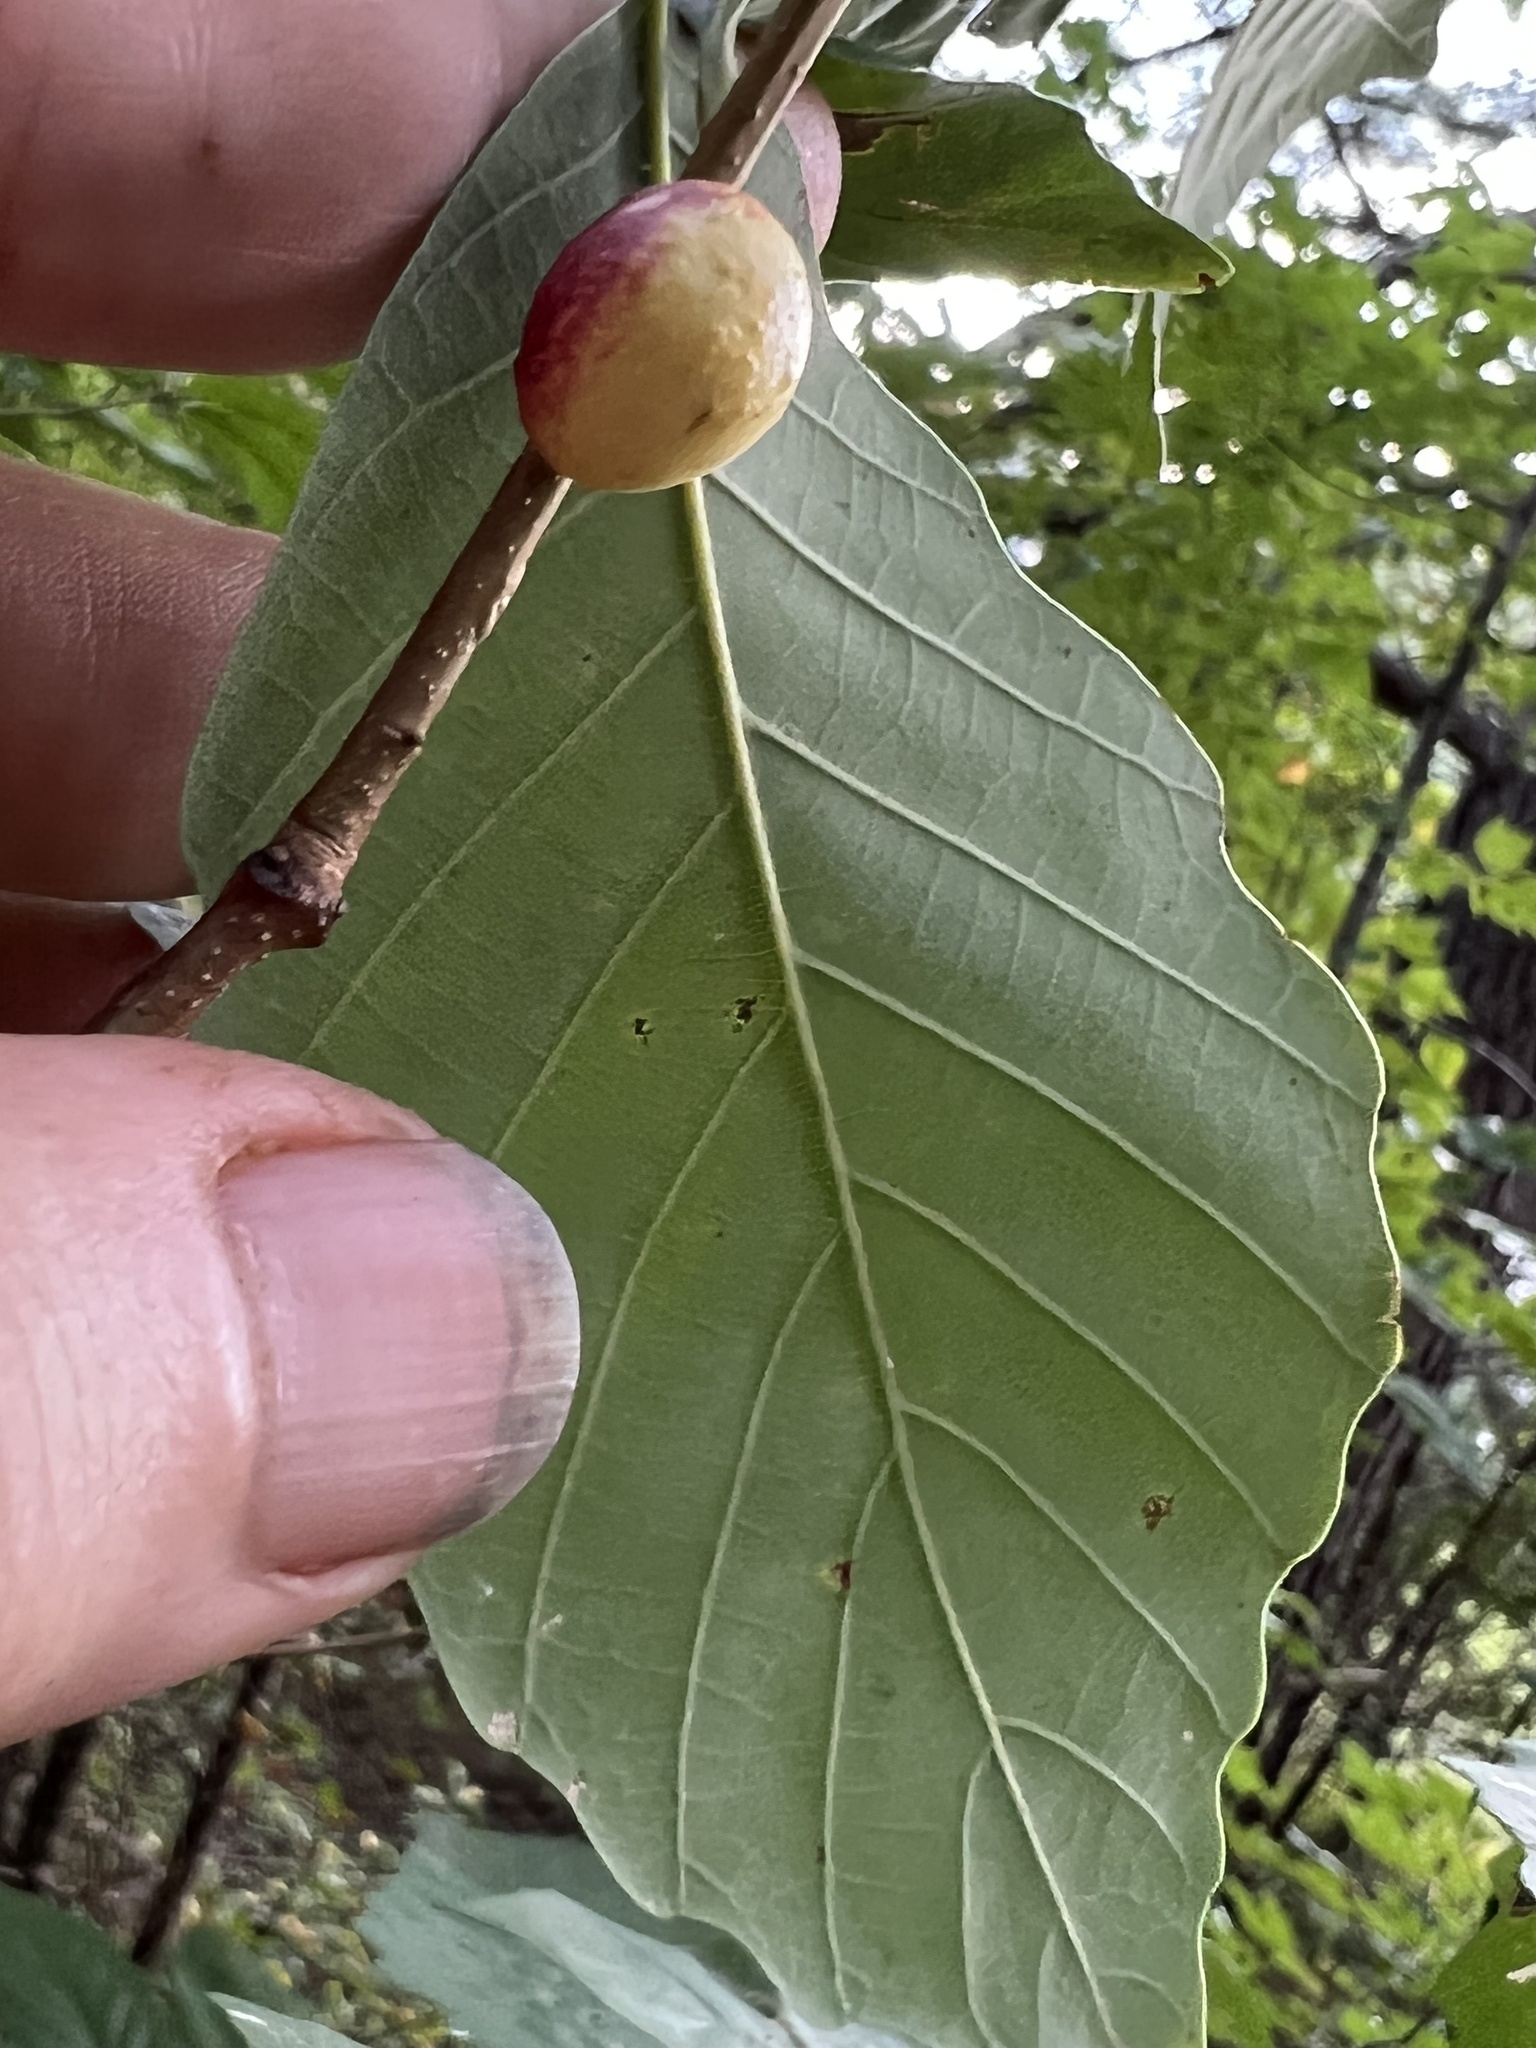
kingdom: Animalia
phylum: Arthropoda
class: Insecta
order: Hymenoptera
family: Cynipidae
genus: Disholcaspis
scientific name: Disholcaspis quercusglobulus
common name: Round bullet gall wasp
